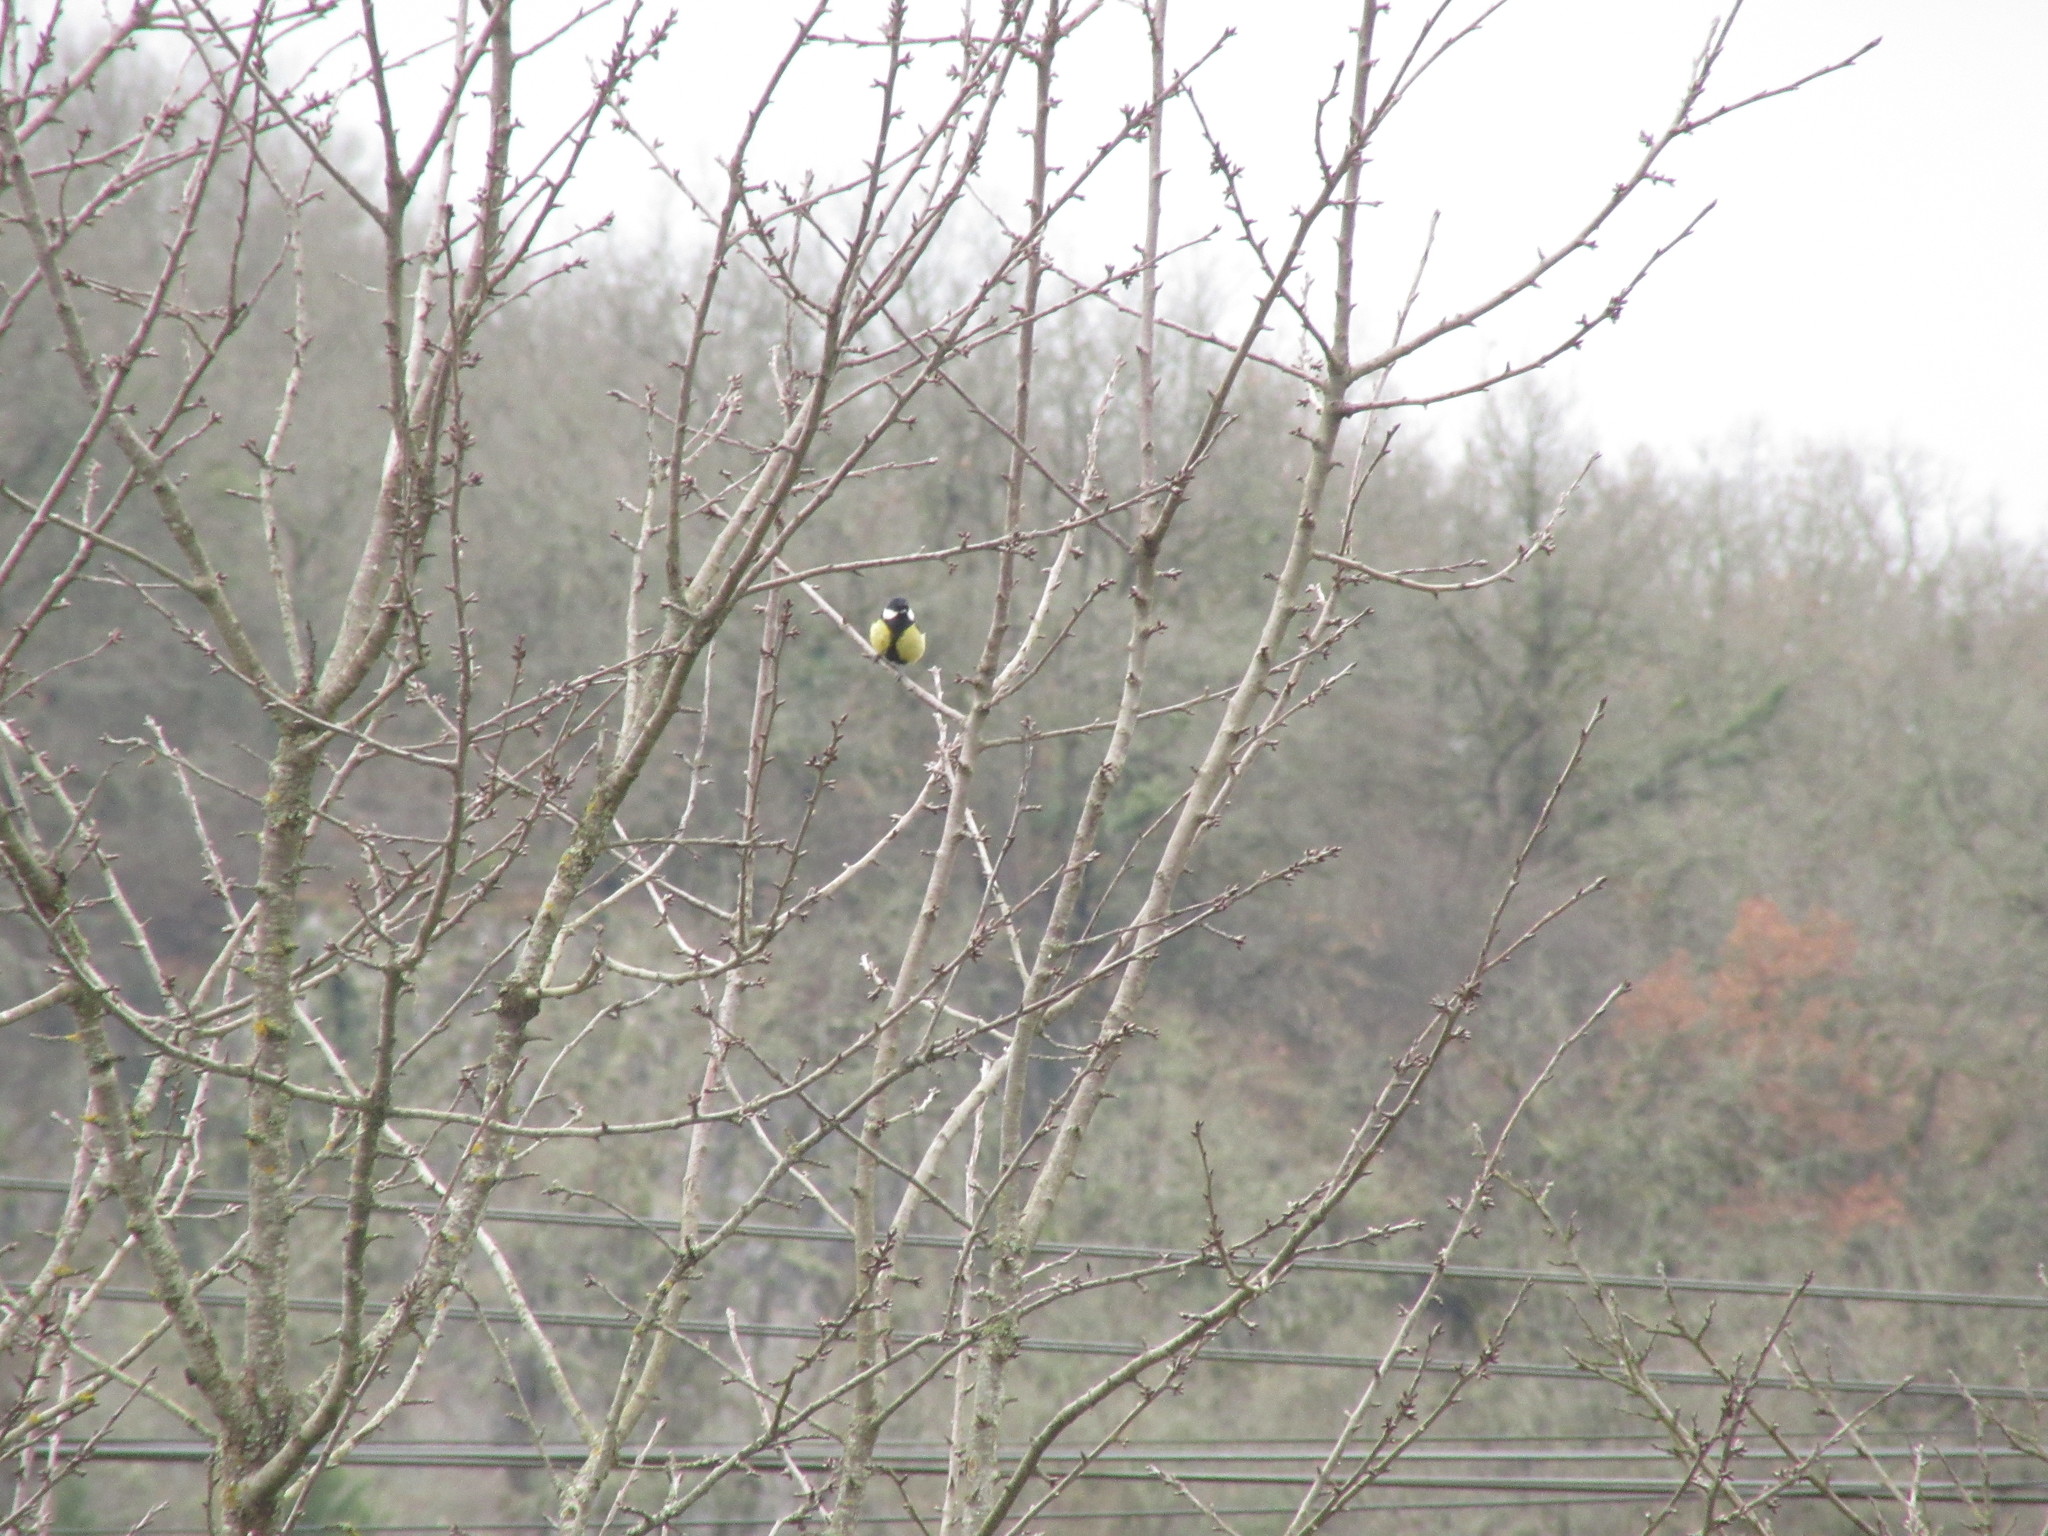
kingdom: Animalia
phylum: Chordata
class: Aves
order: Passeriformes
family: Paridae
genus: Parus
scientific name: Parus major
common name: Great tit
